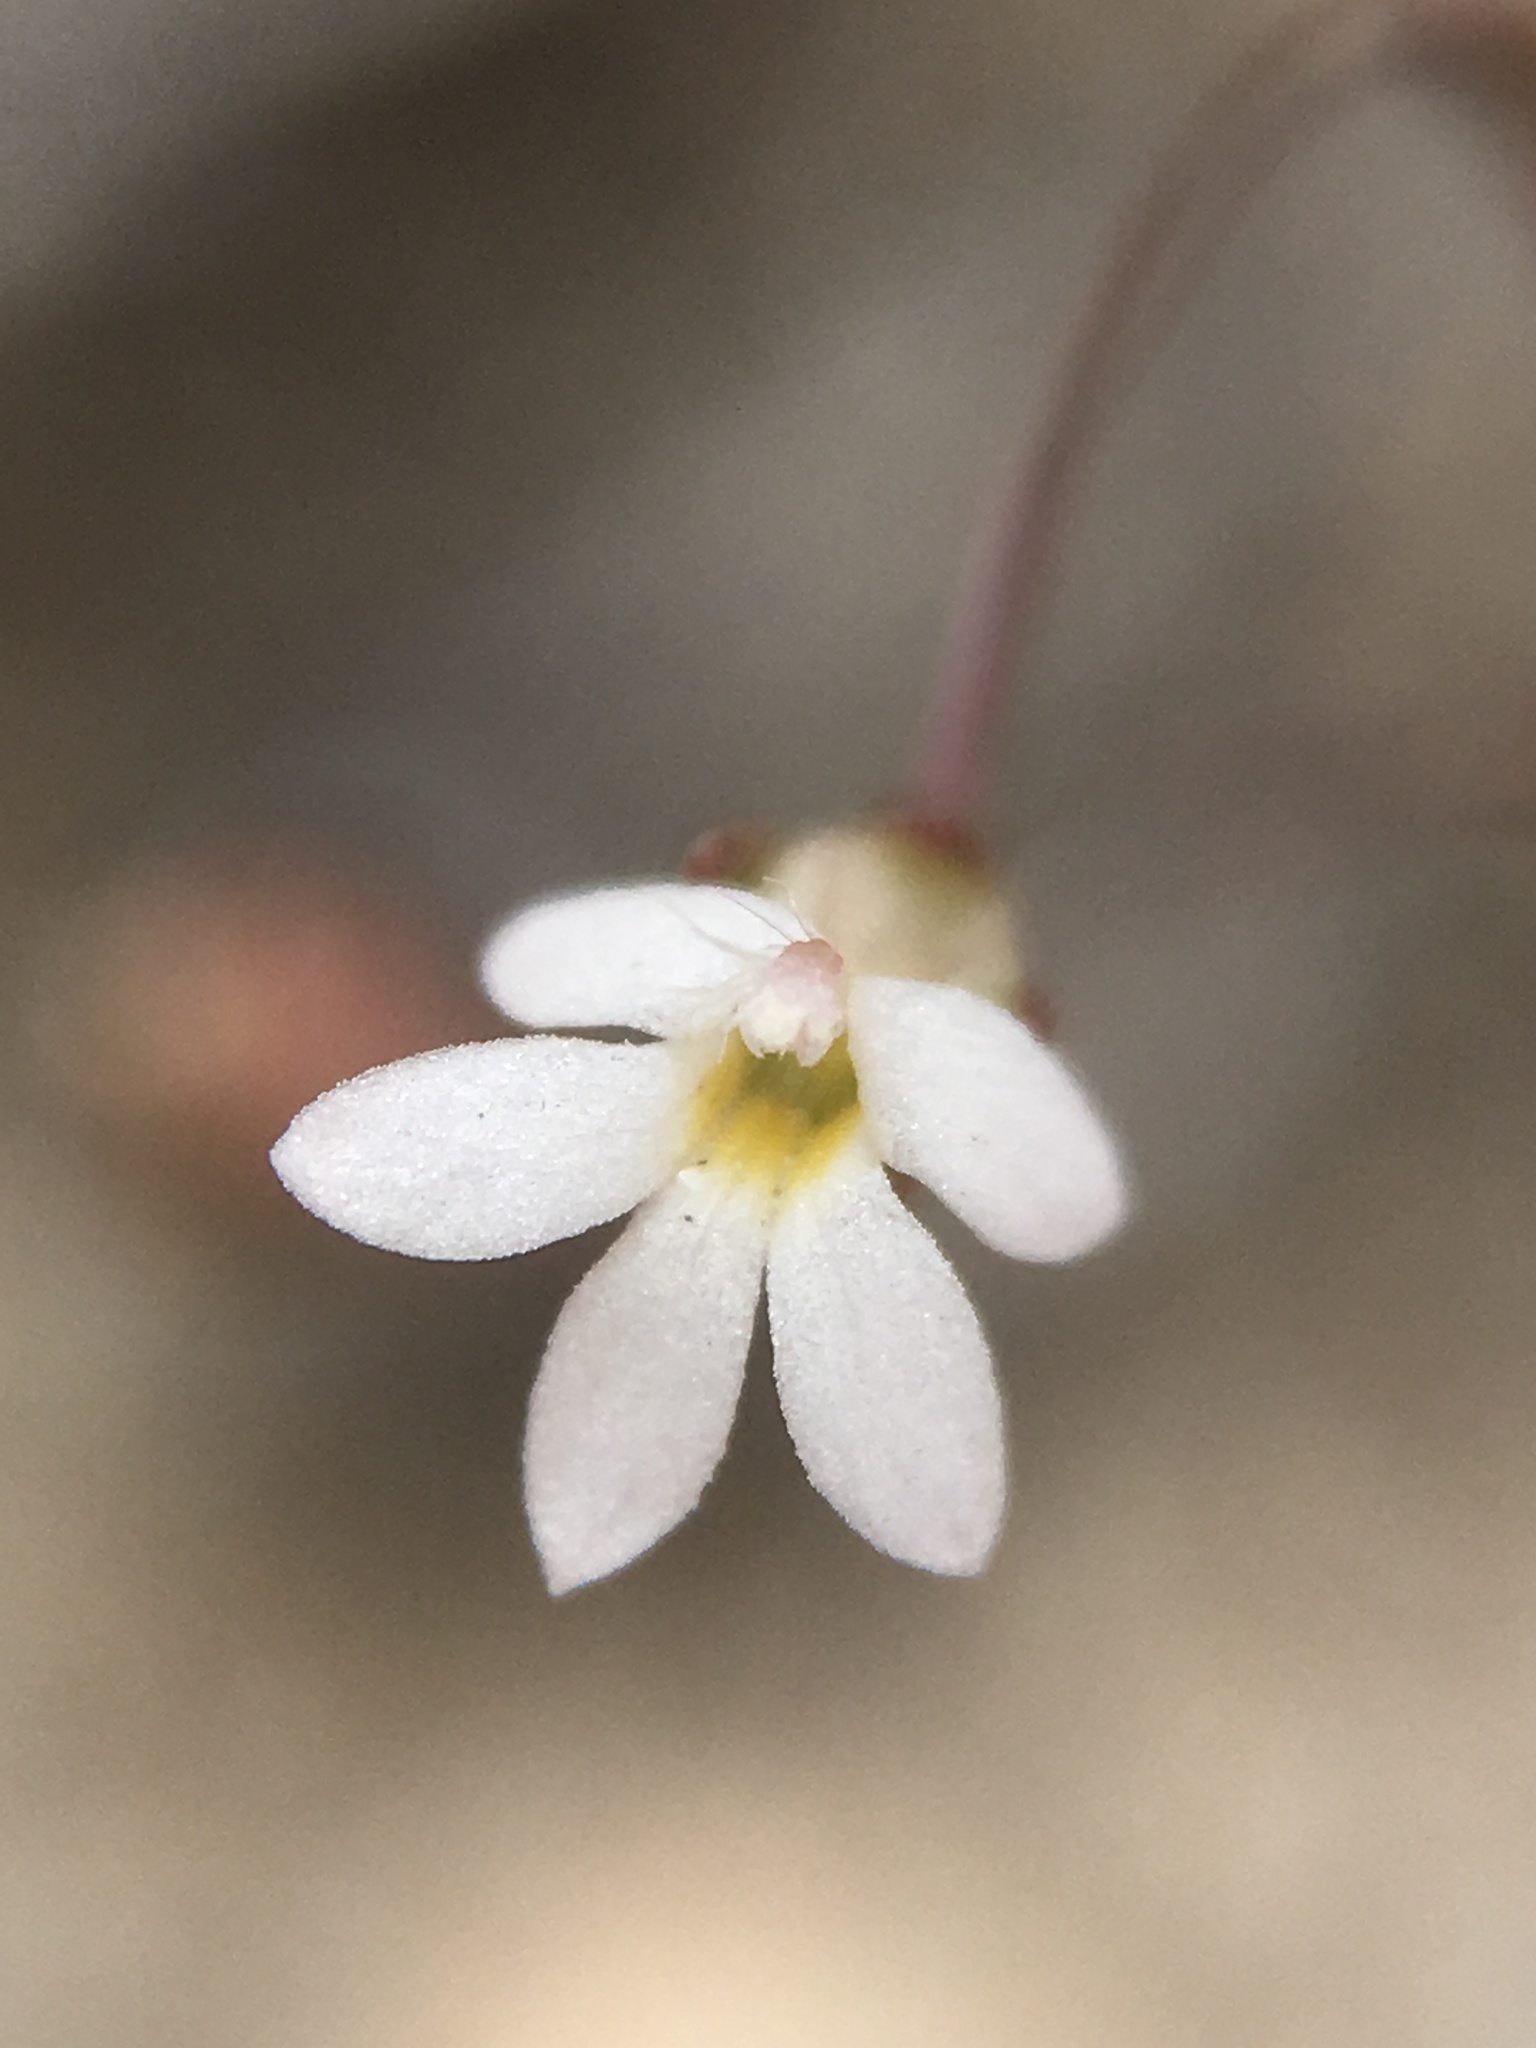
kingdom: Plantae
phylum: Tracheophyta
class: Magnoliopsida
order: Asterales
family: Campanulaceae
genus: Nemacladus
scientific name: Nemacladus sigmoideus
